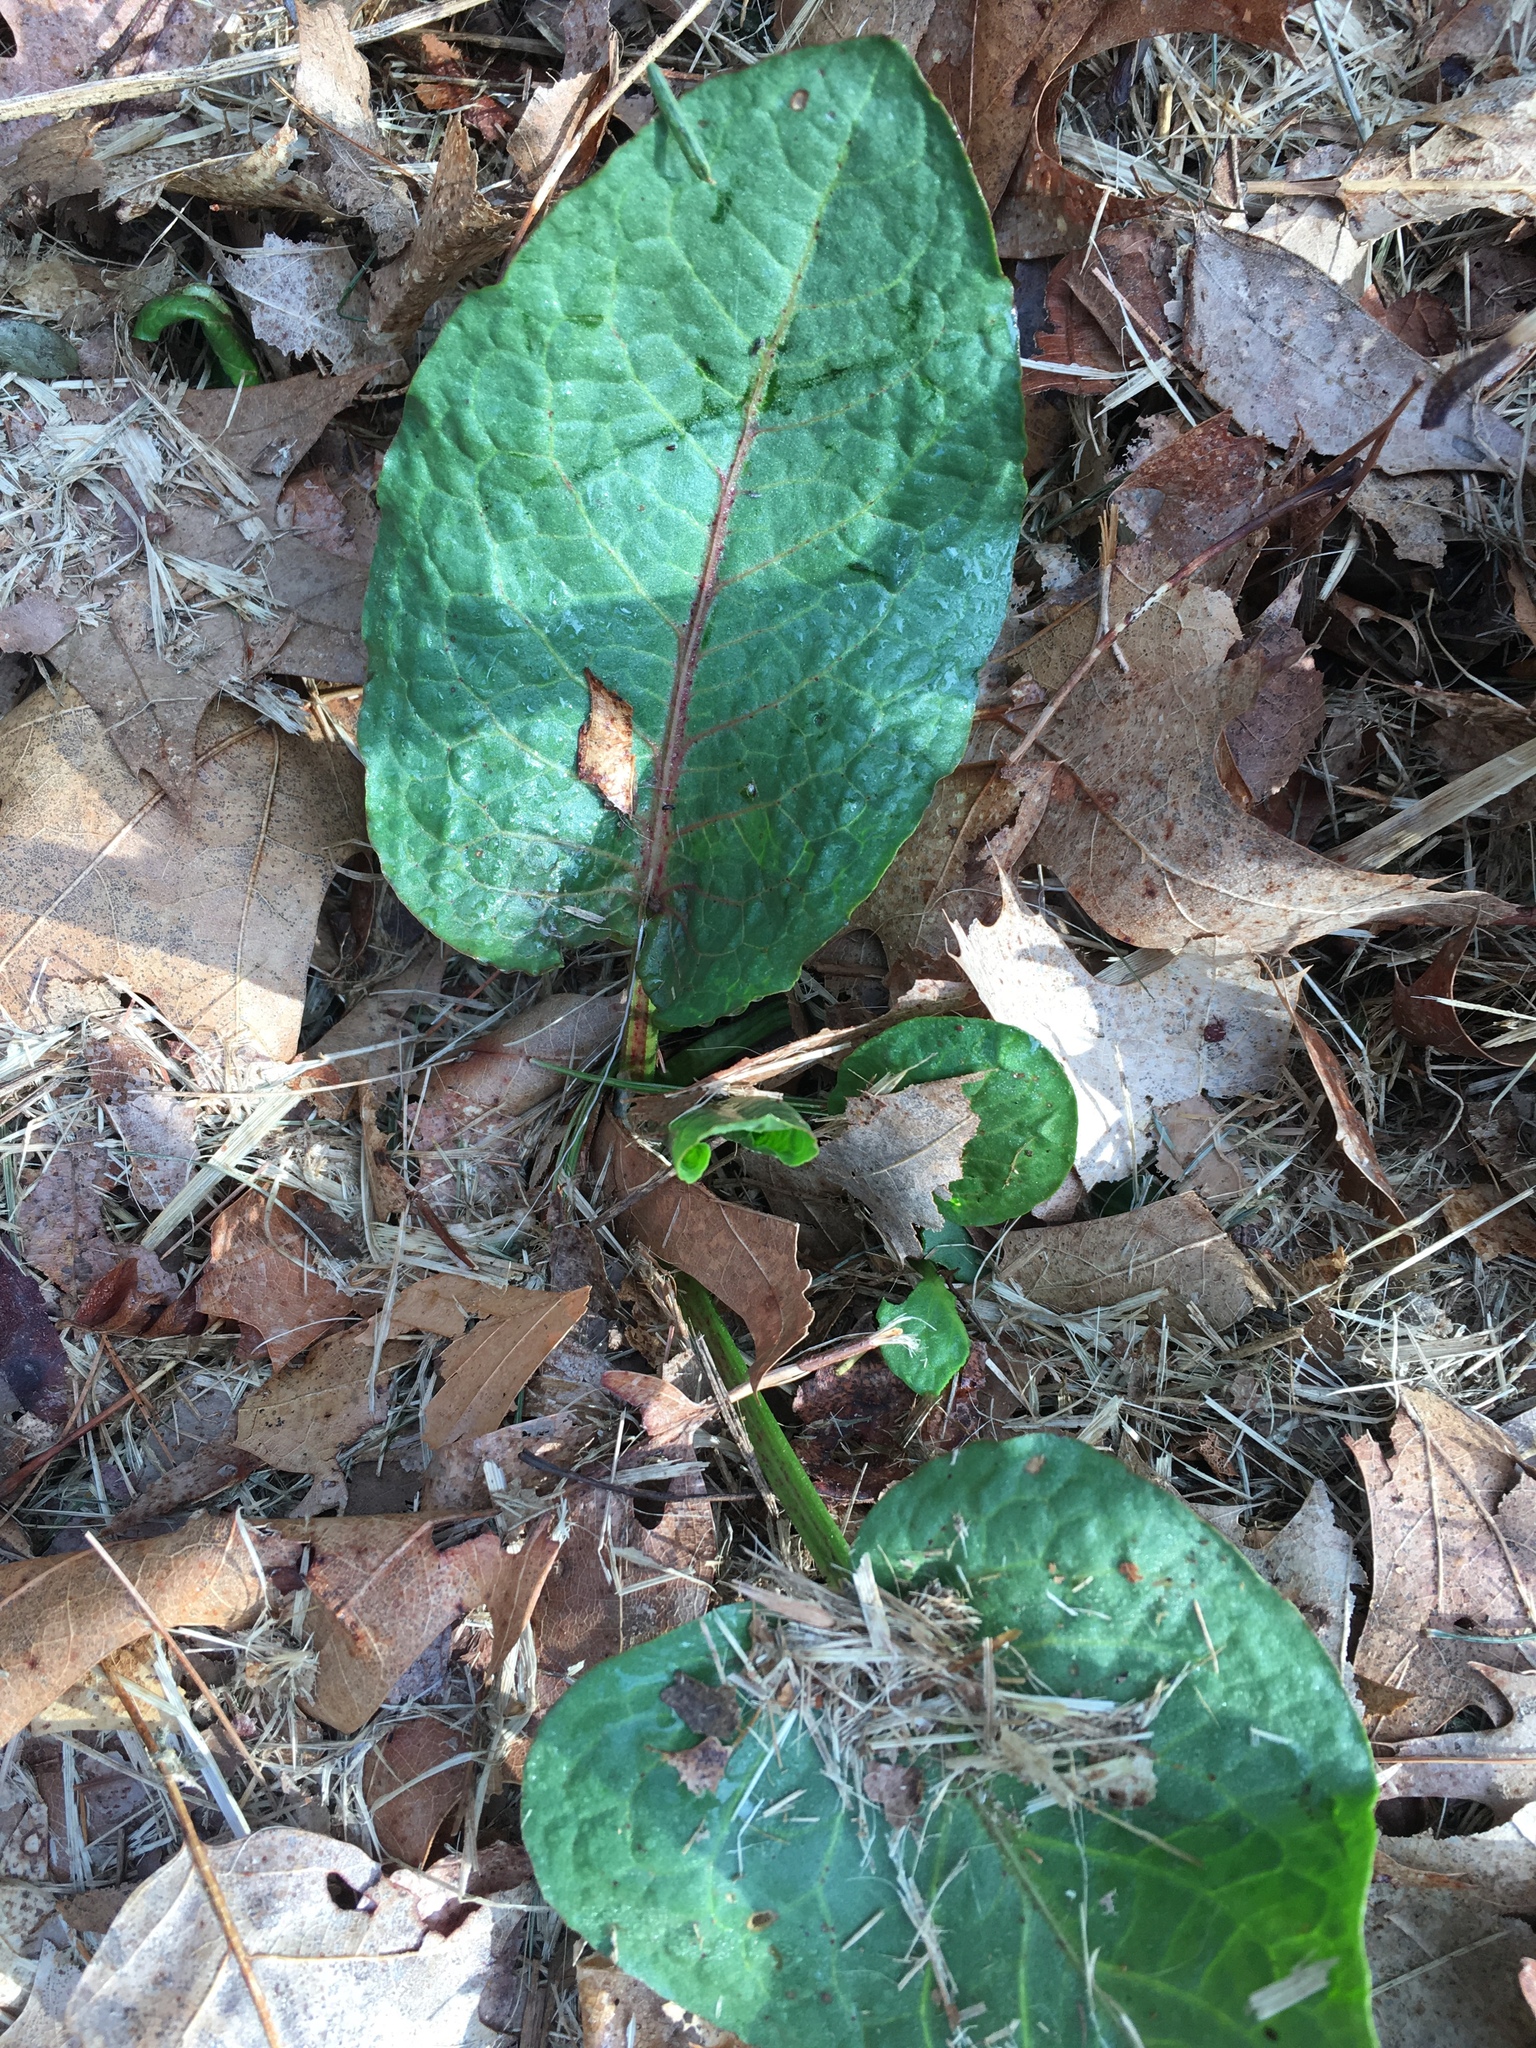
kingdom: Plantae
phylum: Tracheophyta
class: Magnoliopsida
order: Caryophyllales
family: Polygonaceae
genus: Rumex
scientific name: Rumex obtusifolius
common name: Bitter dock
